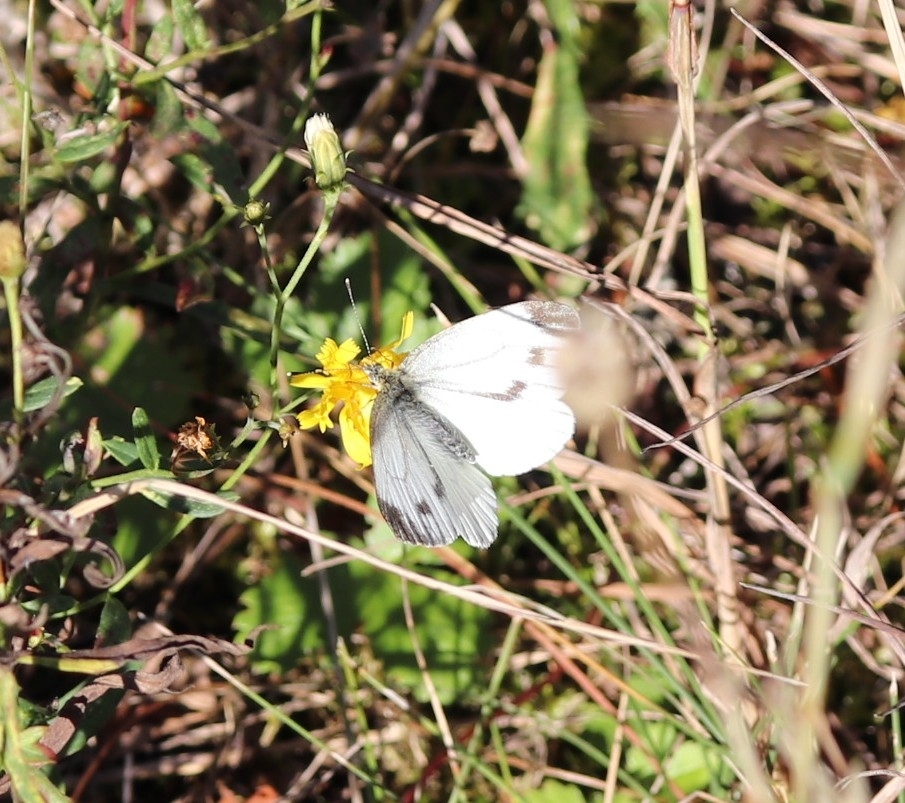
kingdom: Animalia
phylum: Arthropoda
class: Insecta
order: Lepidoptera
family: Pieridae
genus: Pieris
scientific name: Pieris napi
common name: Green-veined white
